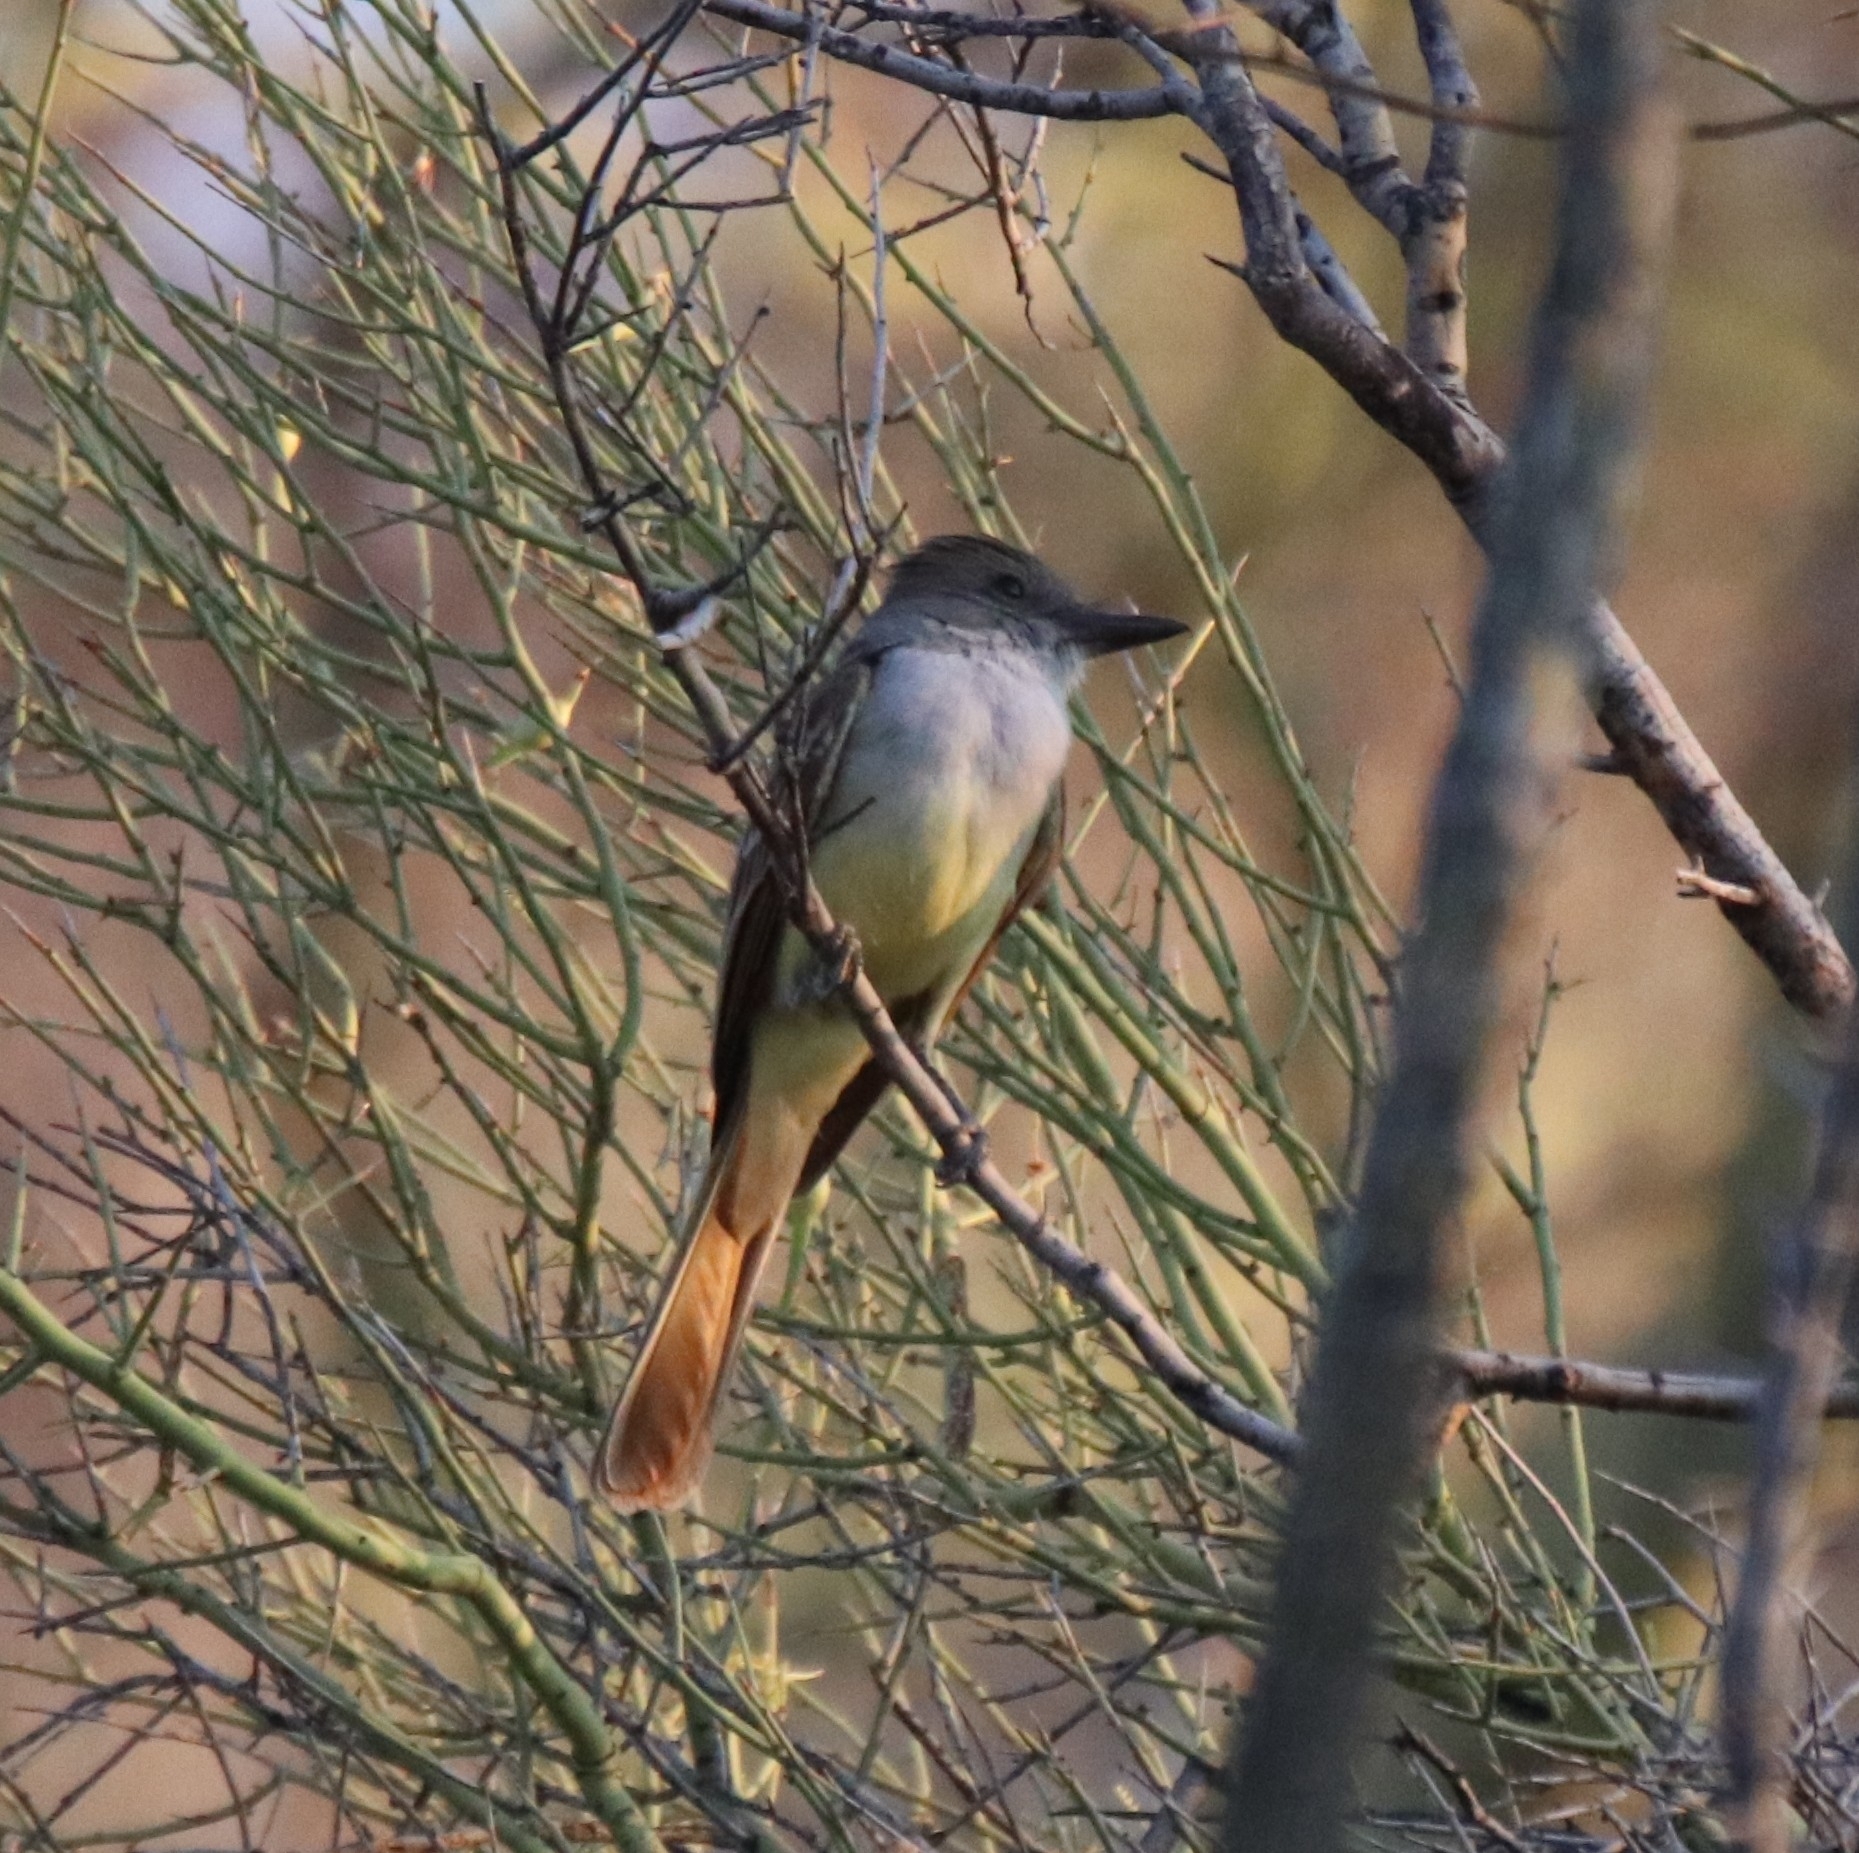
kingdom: Animalia
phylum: Chordata
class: Aves
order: Passeriformes
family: Tyrannidae
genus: Myiarchus
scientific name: Myiarchus tyrannulus
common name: Brown-crested flycatcher
